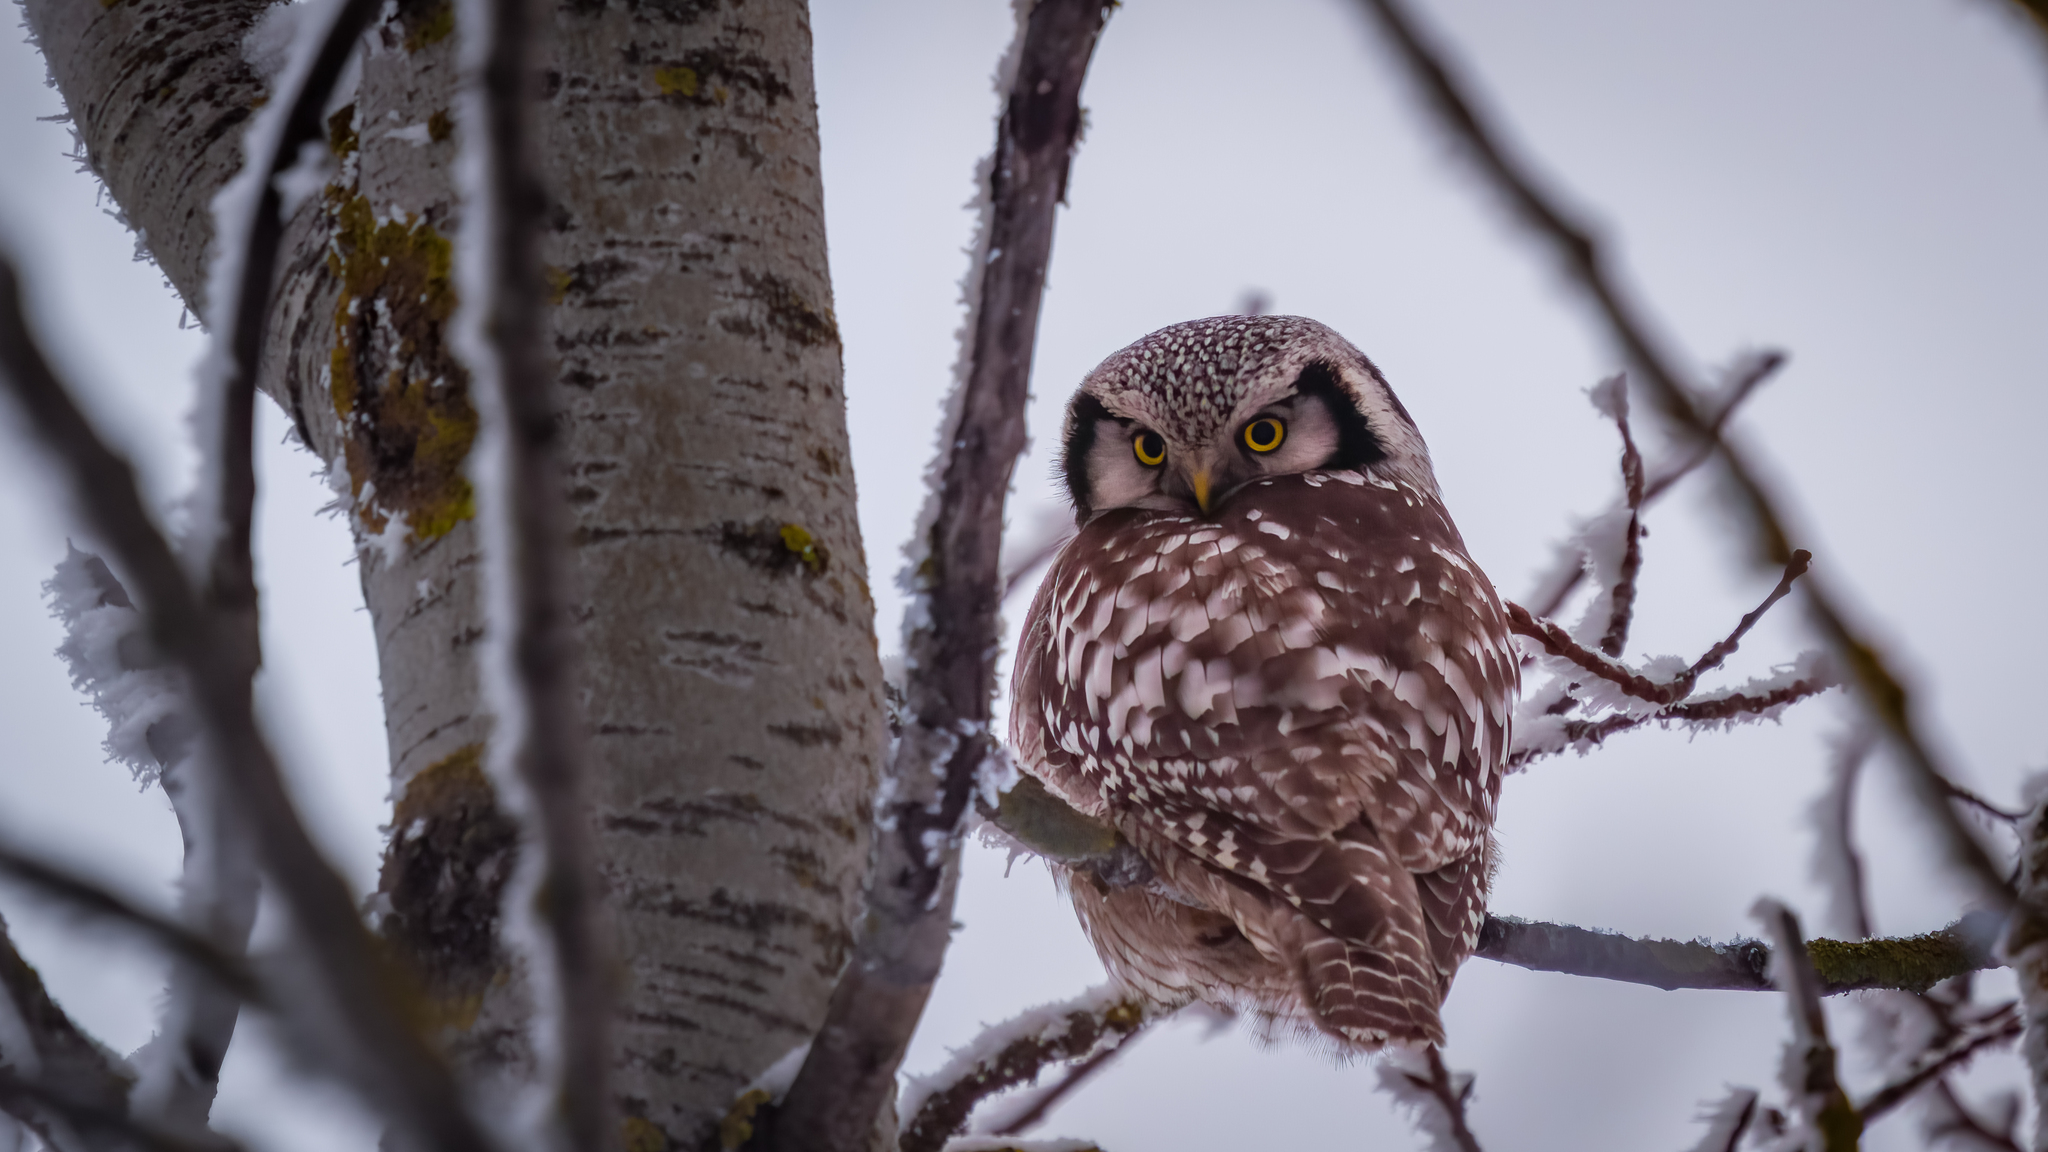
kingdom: Animalia
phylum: Chordata
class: Aves
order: Strigiformes
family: Strigidae
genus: Surnia
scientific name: Surnia ulula
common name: Northern hawk-owl
